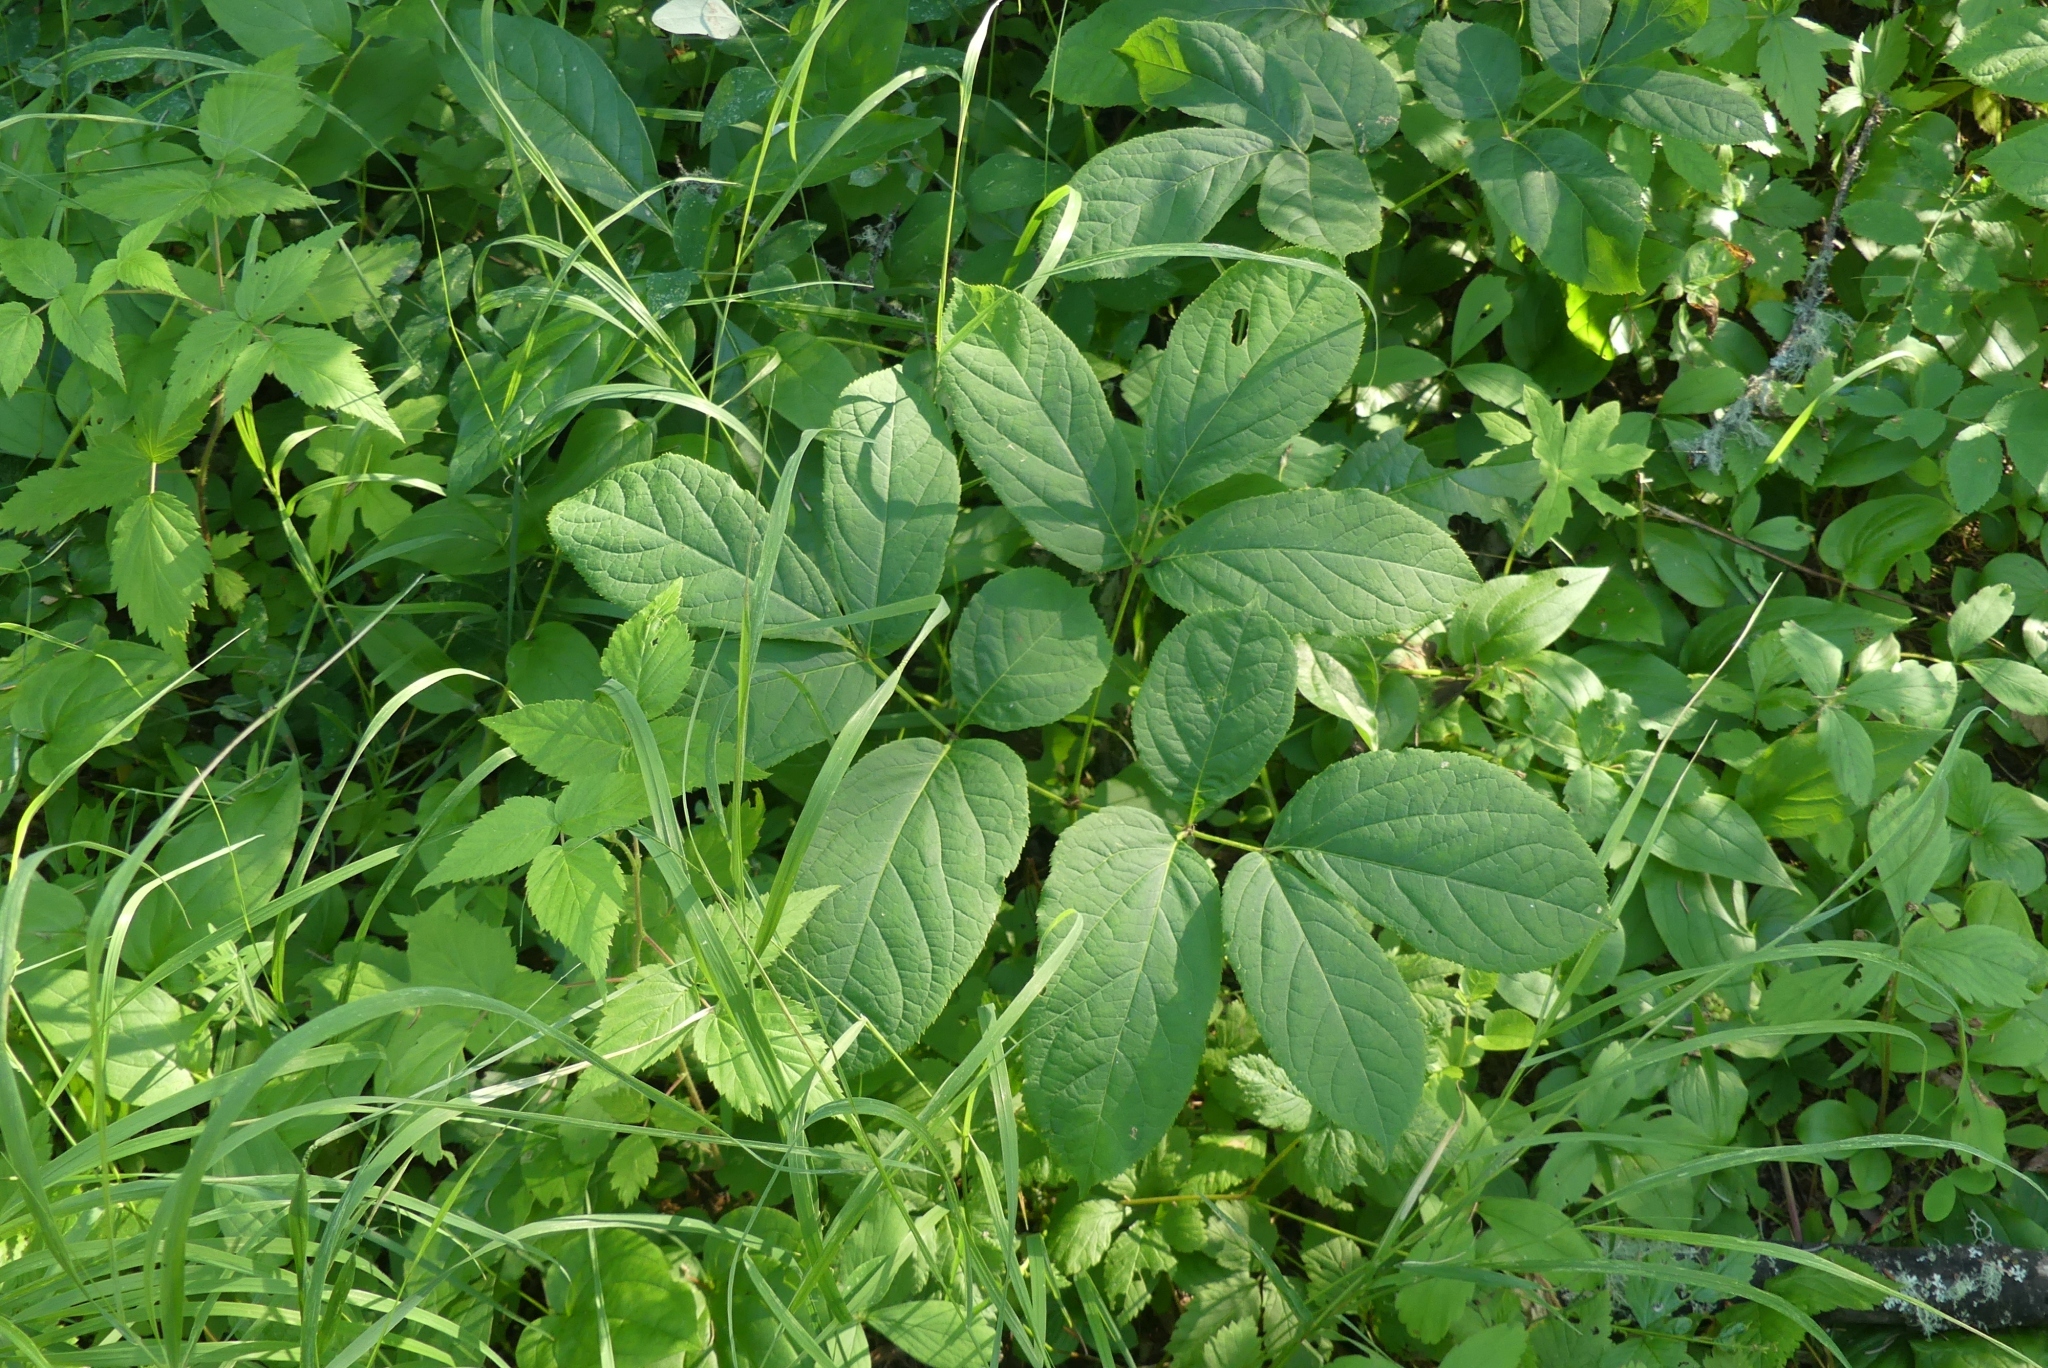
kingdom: Plantae
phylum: Tracheophyta
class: Magnoliopsida
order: Apiales
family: Araliaceae
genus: Aralia
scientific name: Aralia nudicaulis
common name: Wild sarsaparilla
